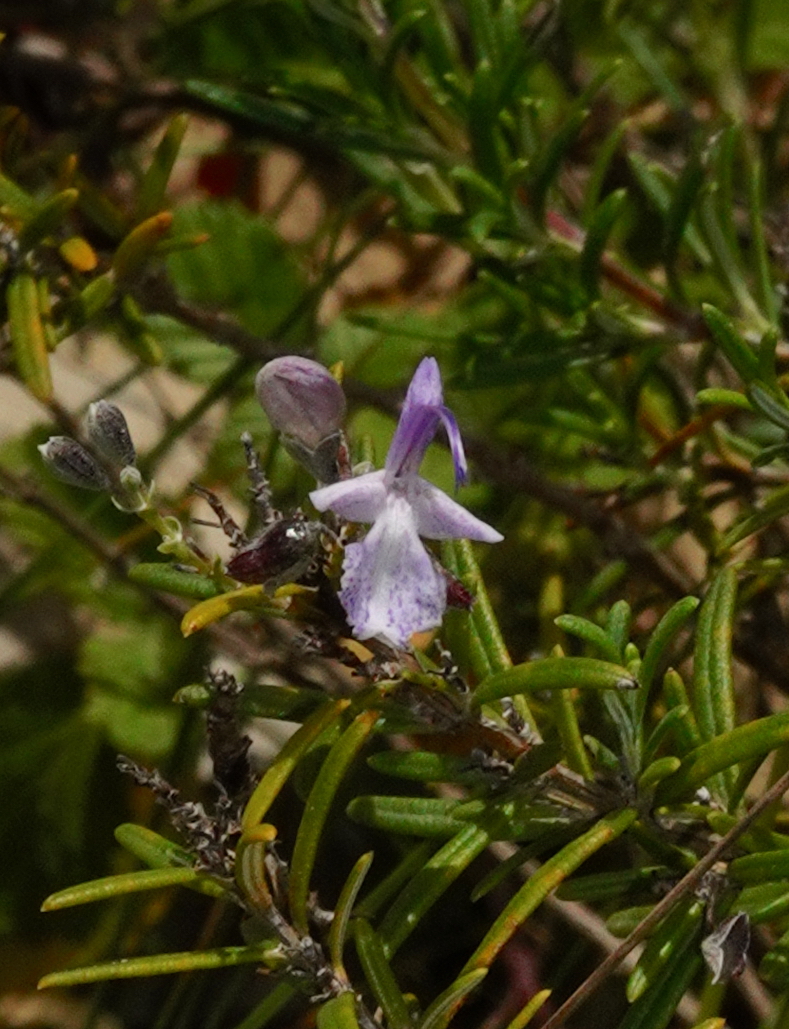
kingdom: Plantae
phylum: Tracheophyta
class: Magnoliopsida
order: Lamiales
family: Lamiaceae
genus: Salvia
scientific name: Salvia rosmarinus
